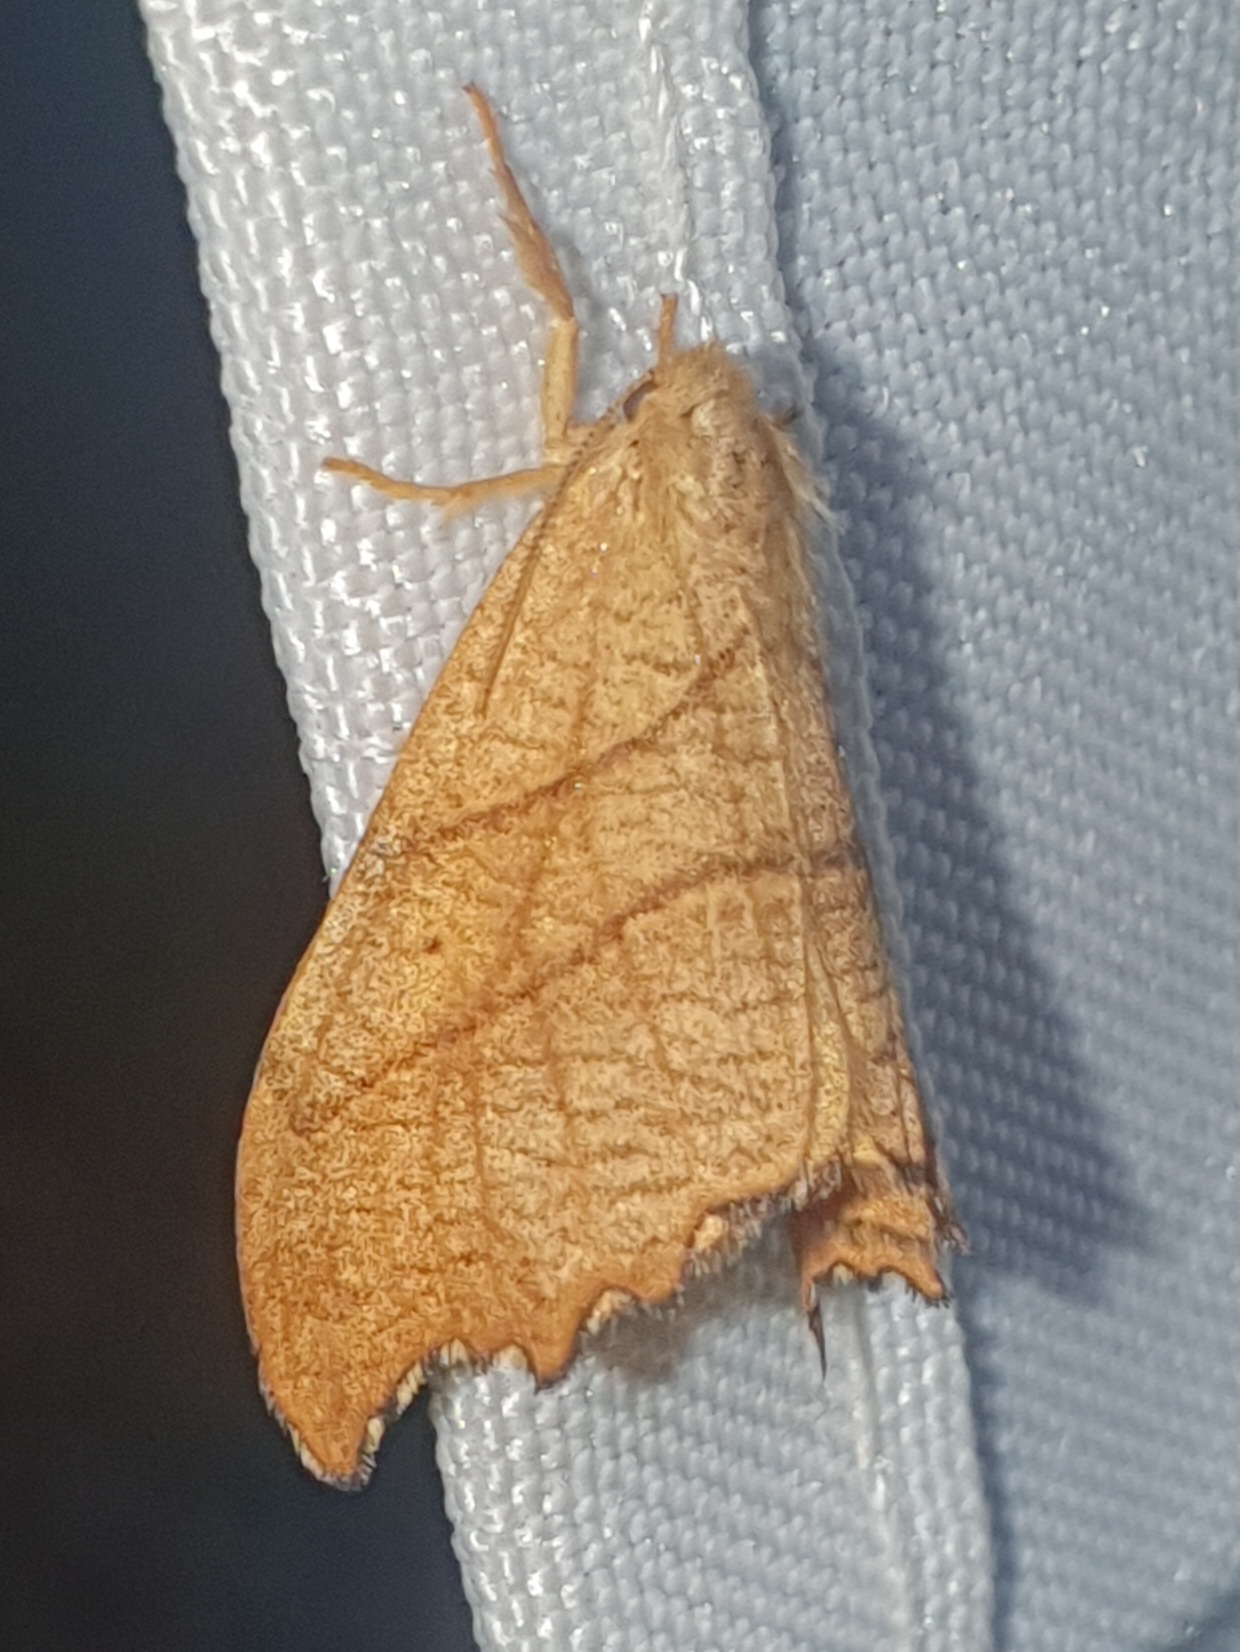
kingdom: Animalia
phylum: Arthropoda
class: Insecta
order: Lepidoptera
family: Drepanidae
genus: Falcaria
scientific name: Falcaria lacertinaria
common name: Scalloped hook-tip
